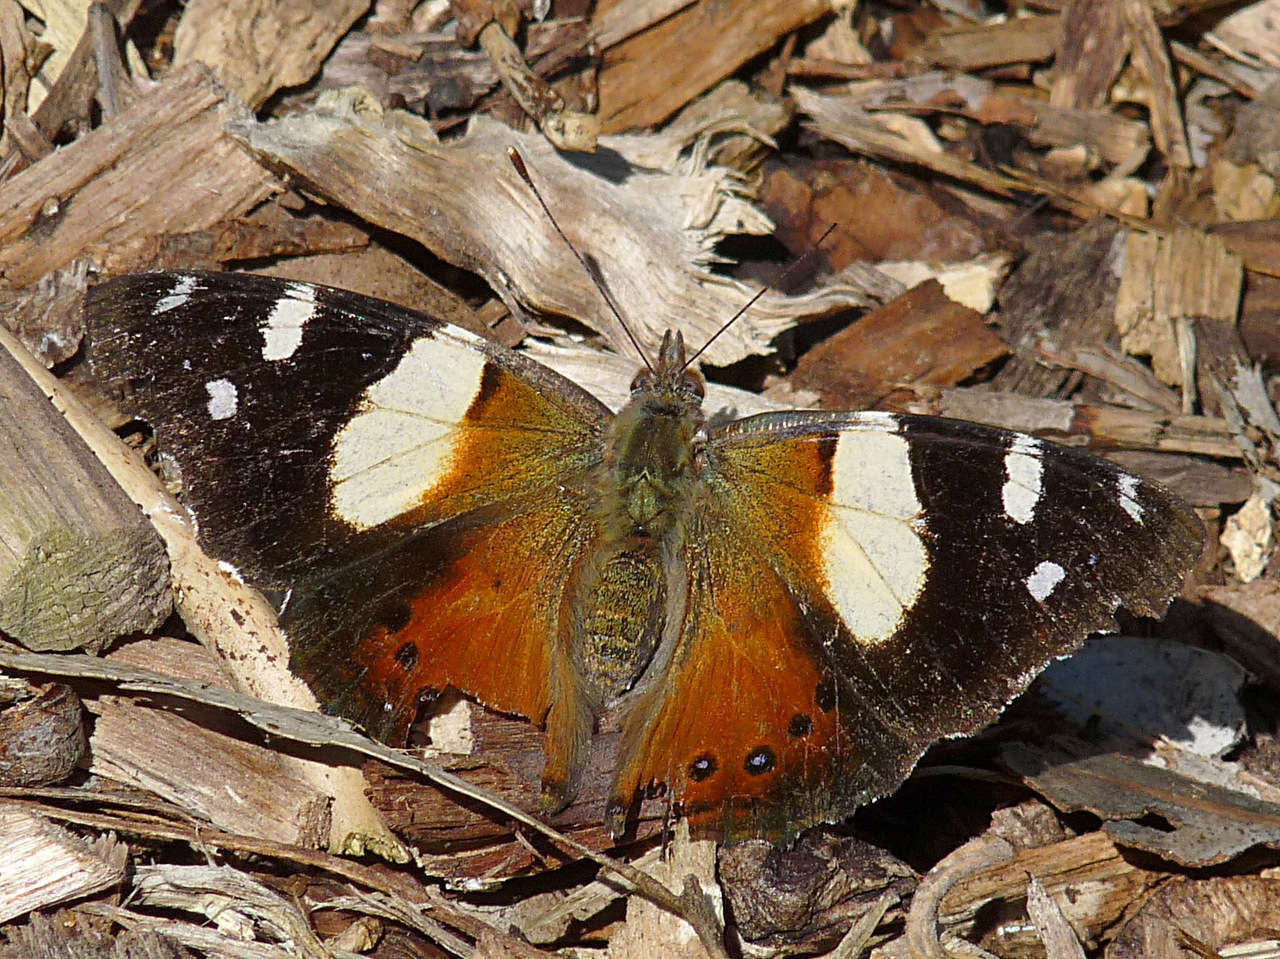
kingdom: Animalia
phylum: Arthropoda
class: Insecta
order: Lepidoptera
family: Nymphalidae
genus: Vanessa
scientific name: Vanessa itea
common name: Yellow admiral
